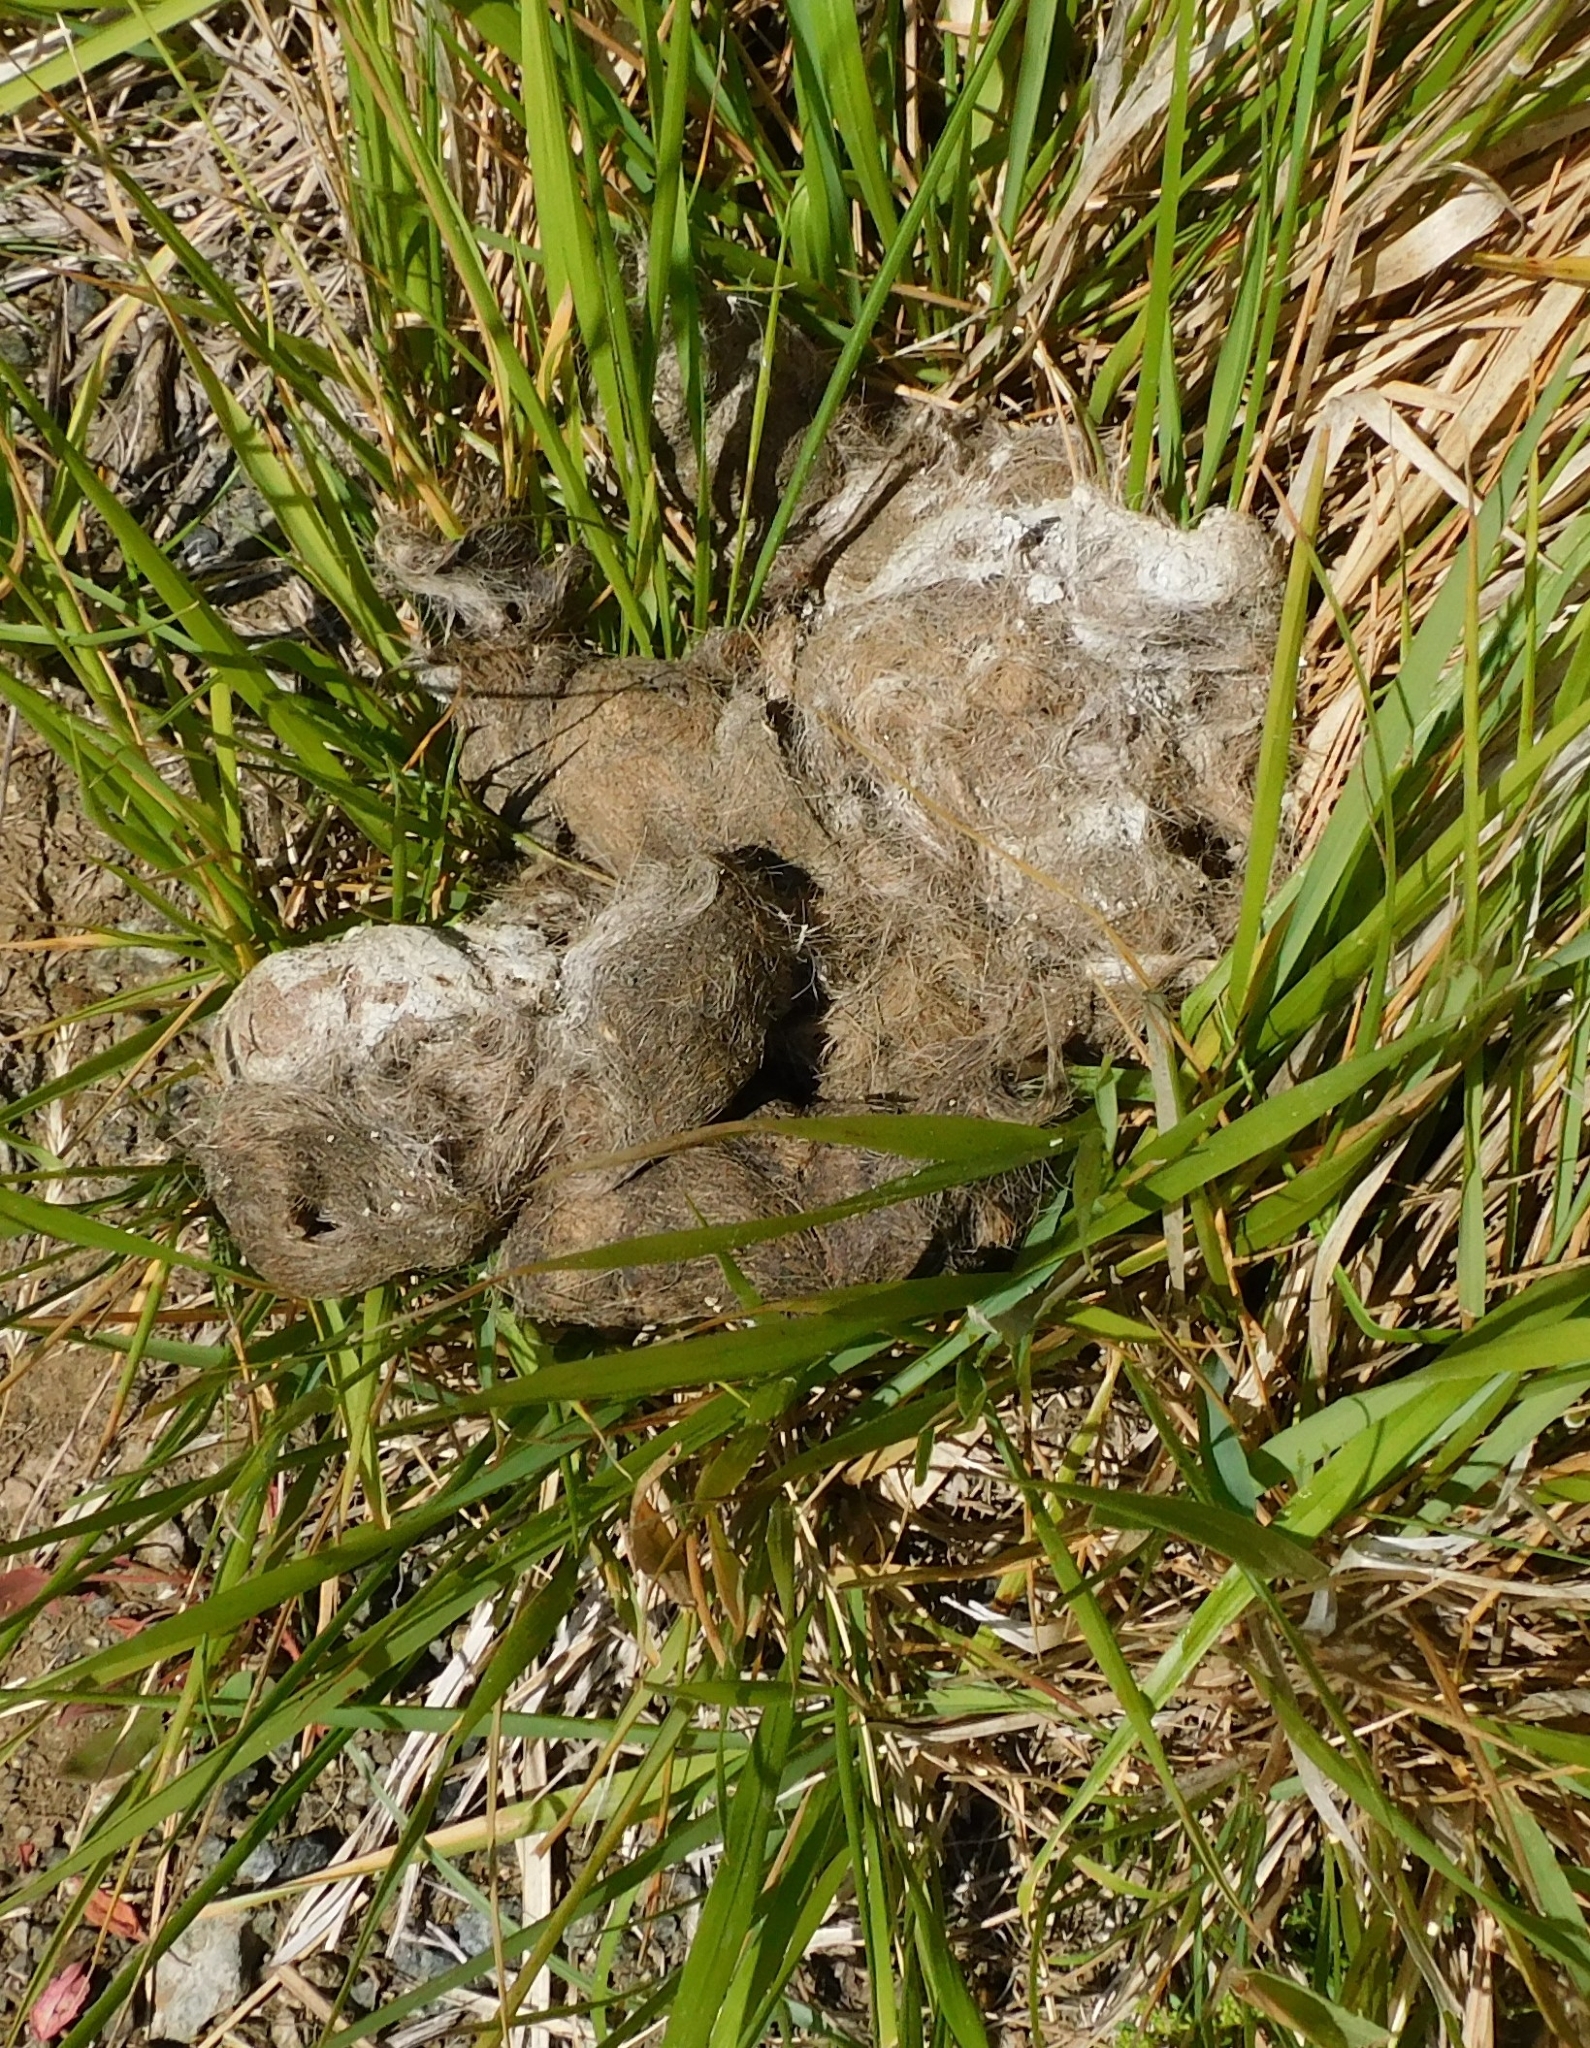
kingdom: Animalia
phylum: Chordata
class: Mammalia
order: Carnivora
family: Canidae
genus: Canis
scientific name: Canis lupus
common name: Gray wolf
